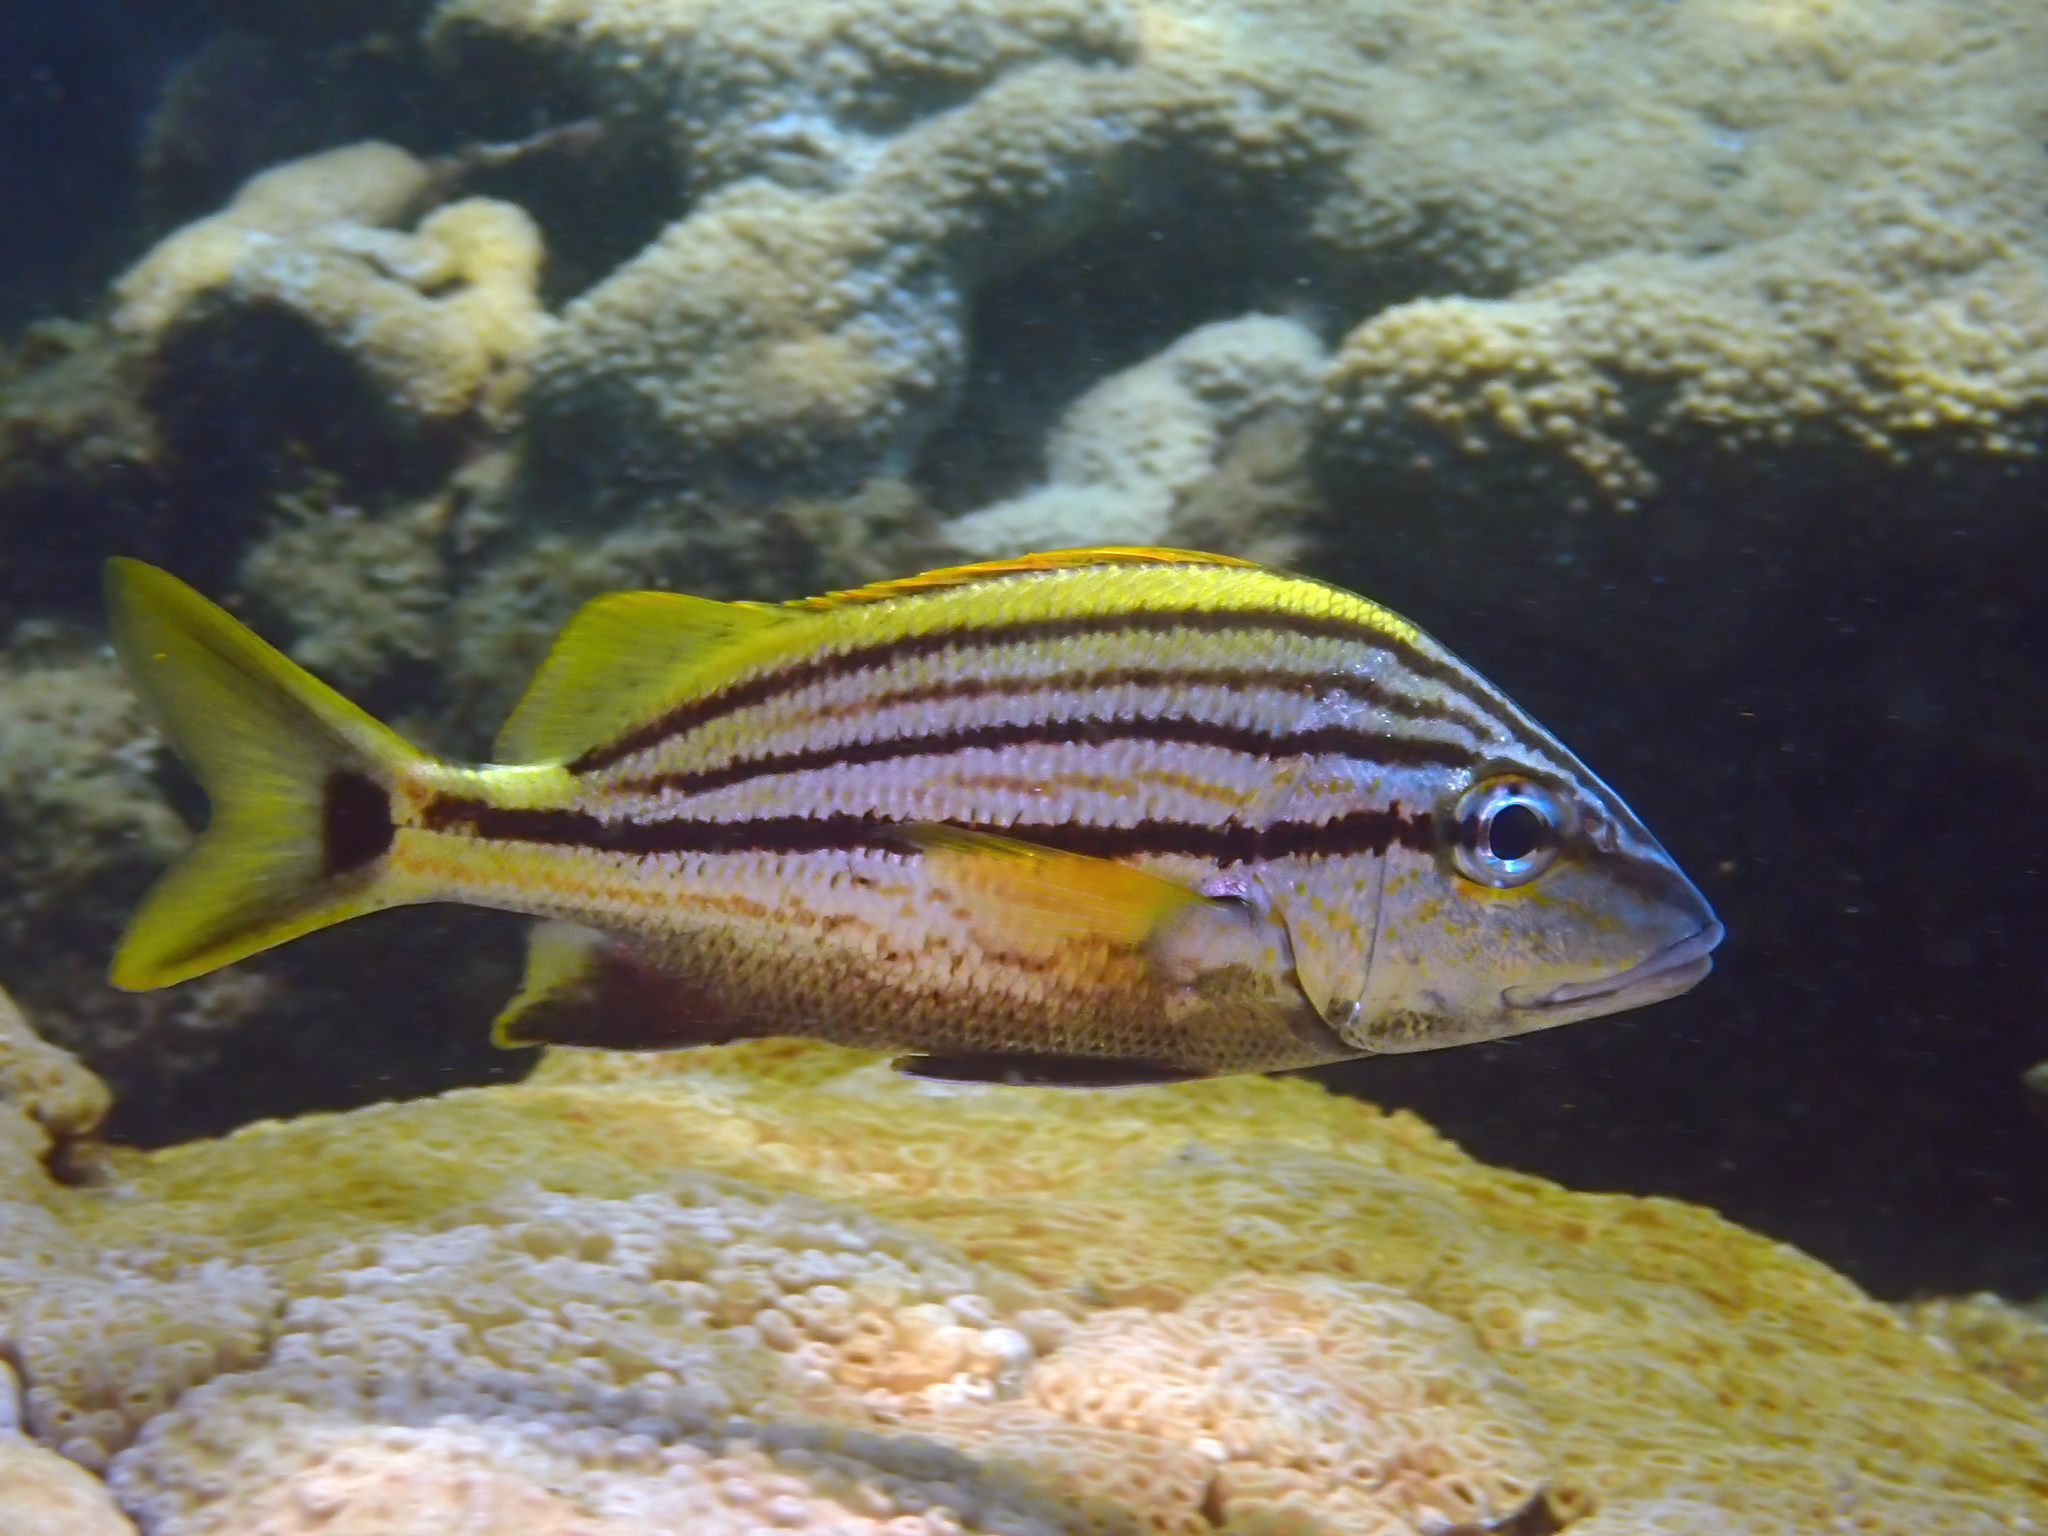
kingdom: Animalia
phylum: Chordata
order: Perciformes
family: Haemulidae
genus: Haemulon
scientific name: Haemulon macrostomum
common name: Spanish grunt
